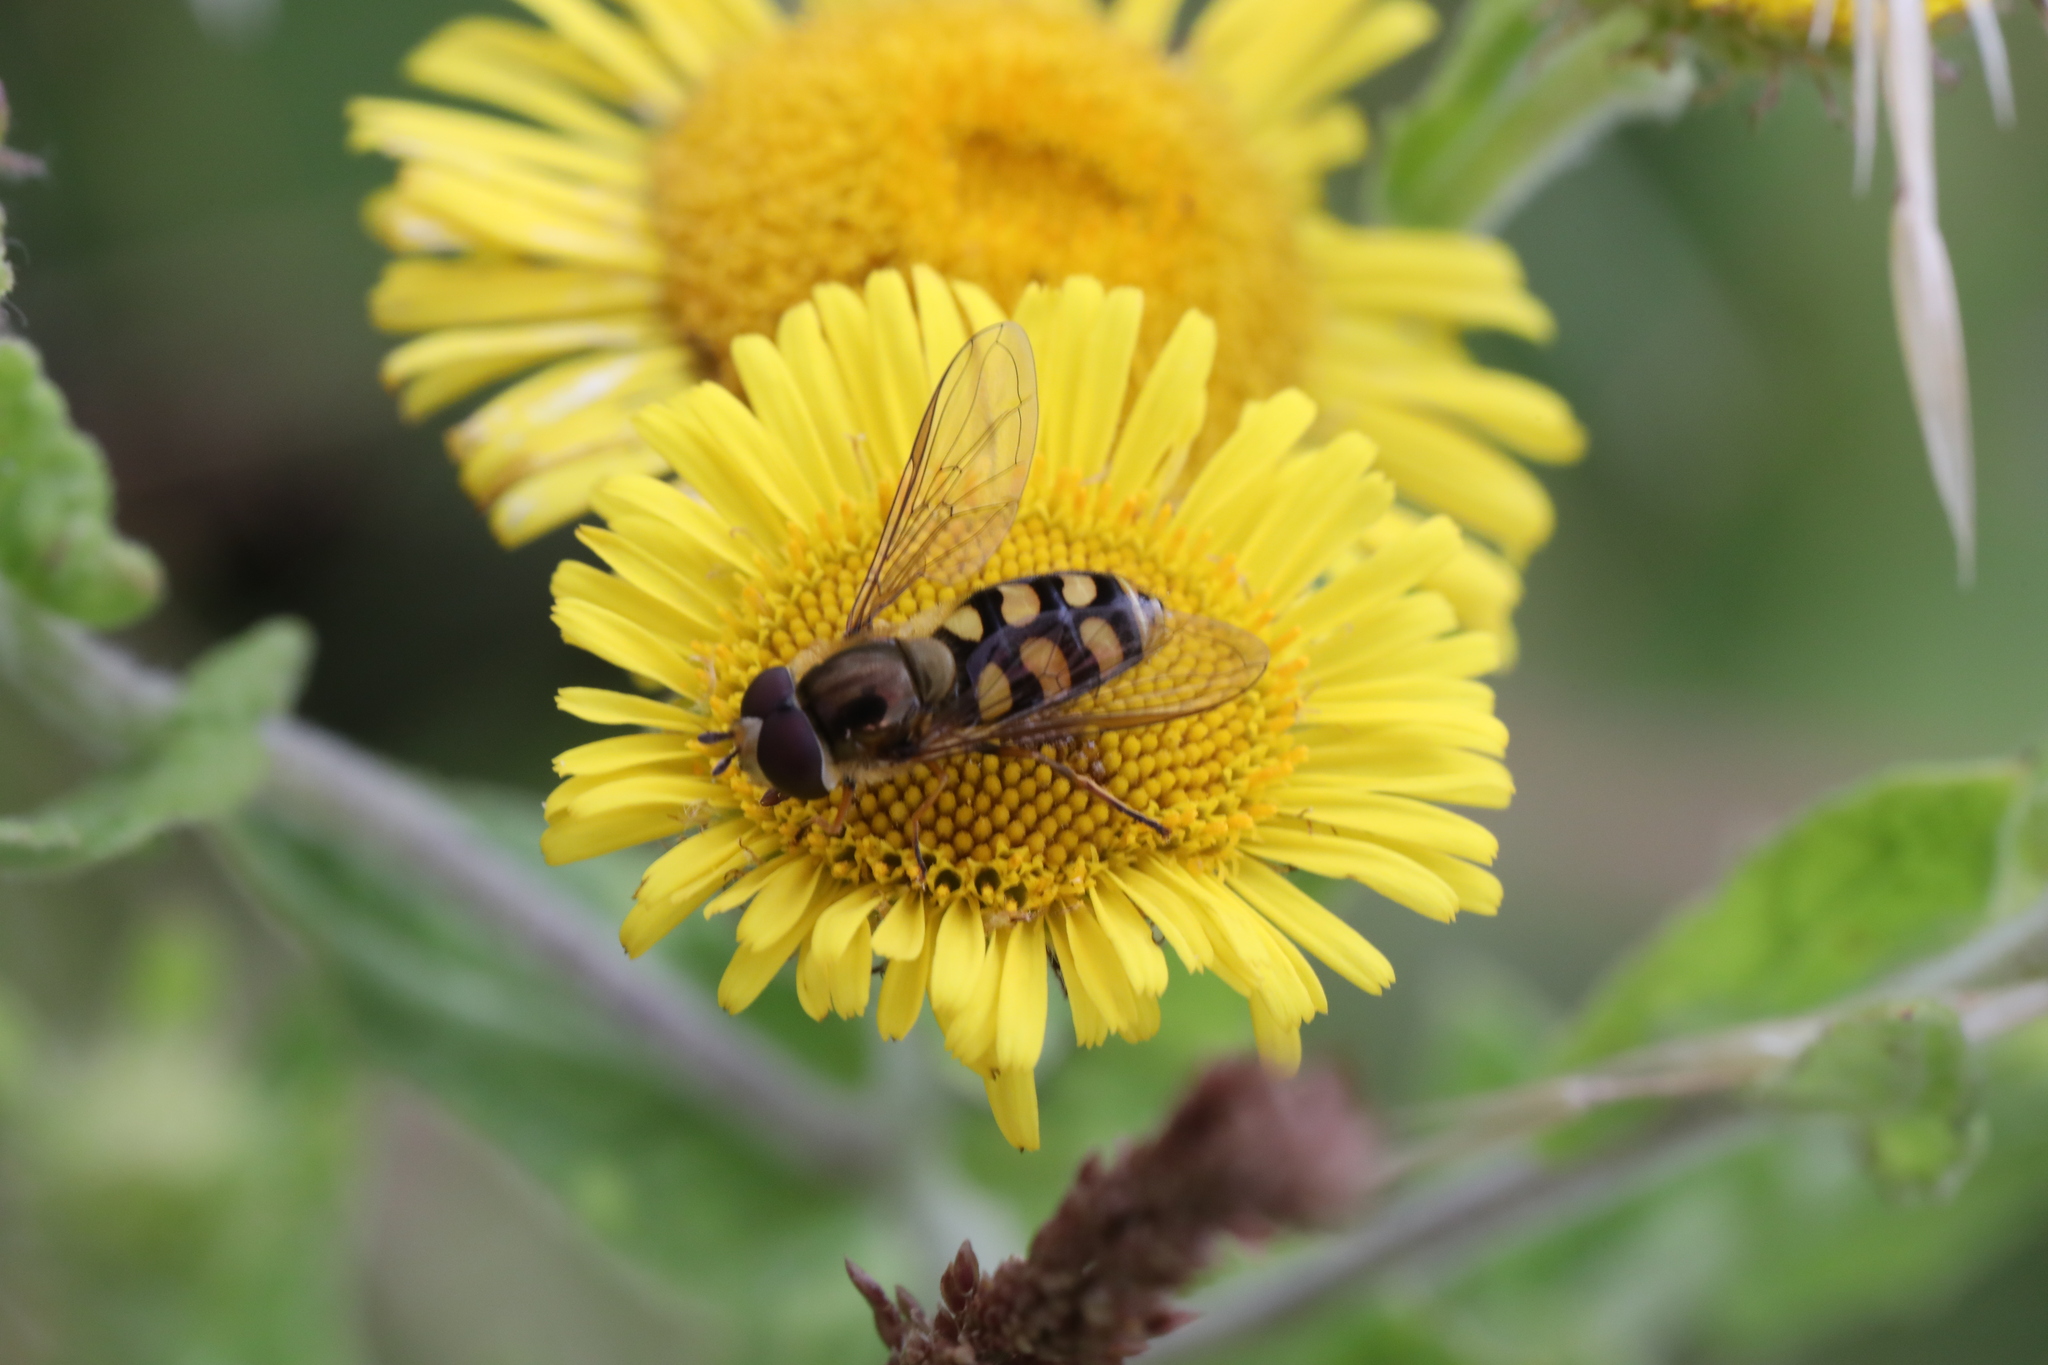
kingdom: Animalia
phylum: Arthropoda
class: Insecta
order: Diptera
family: Syrphidae
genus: Eupeodes
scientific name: Eupeodes corollae
